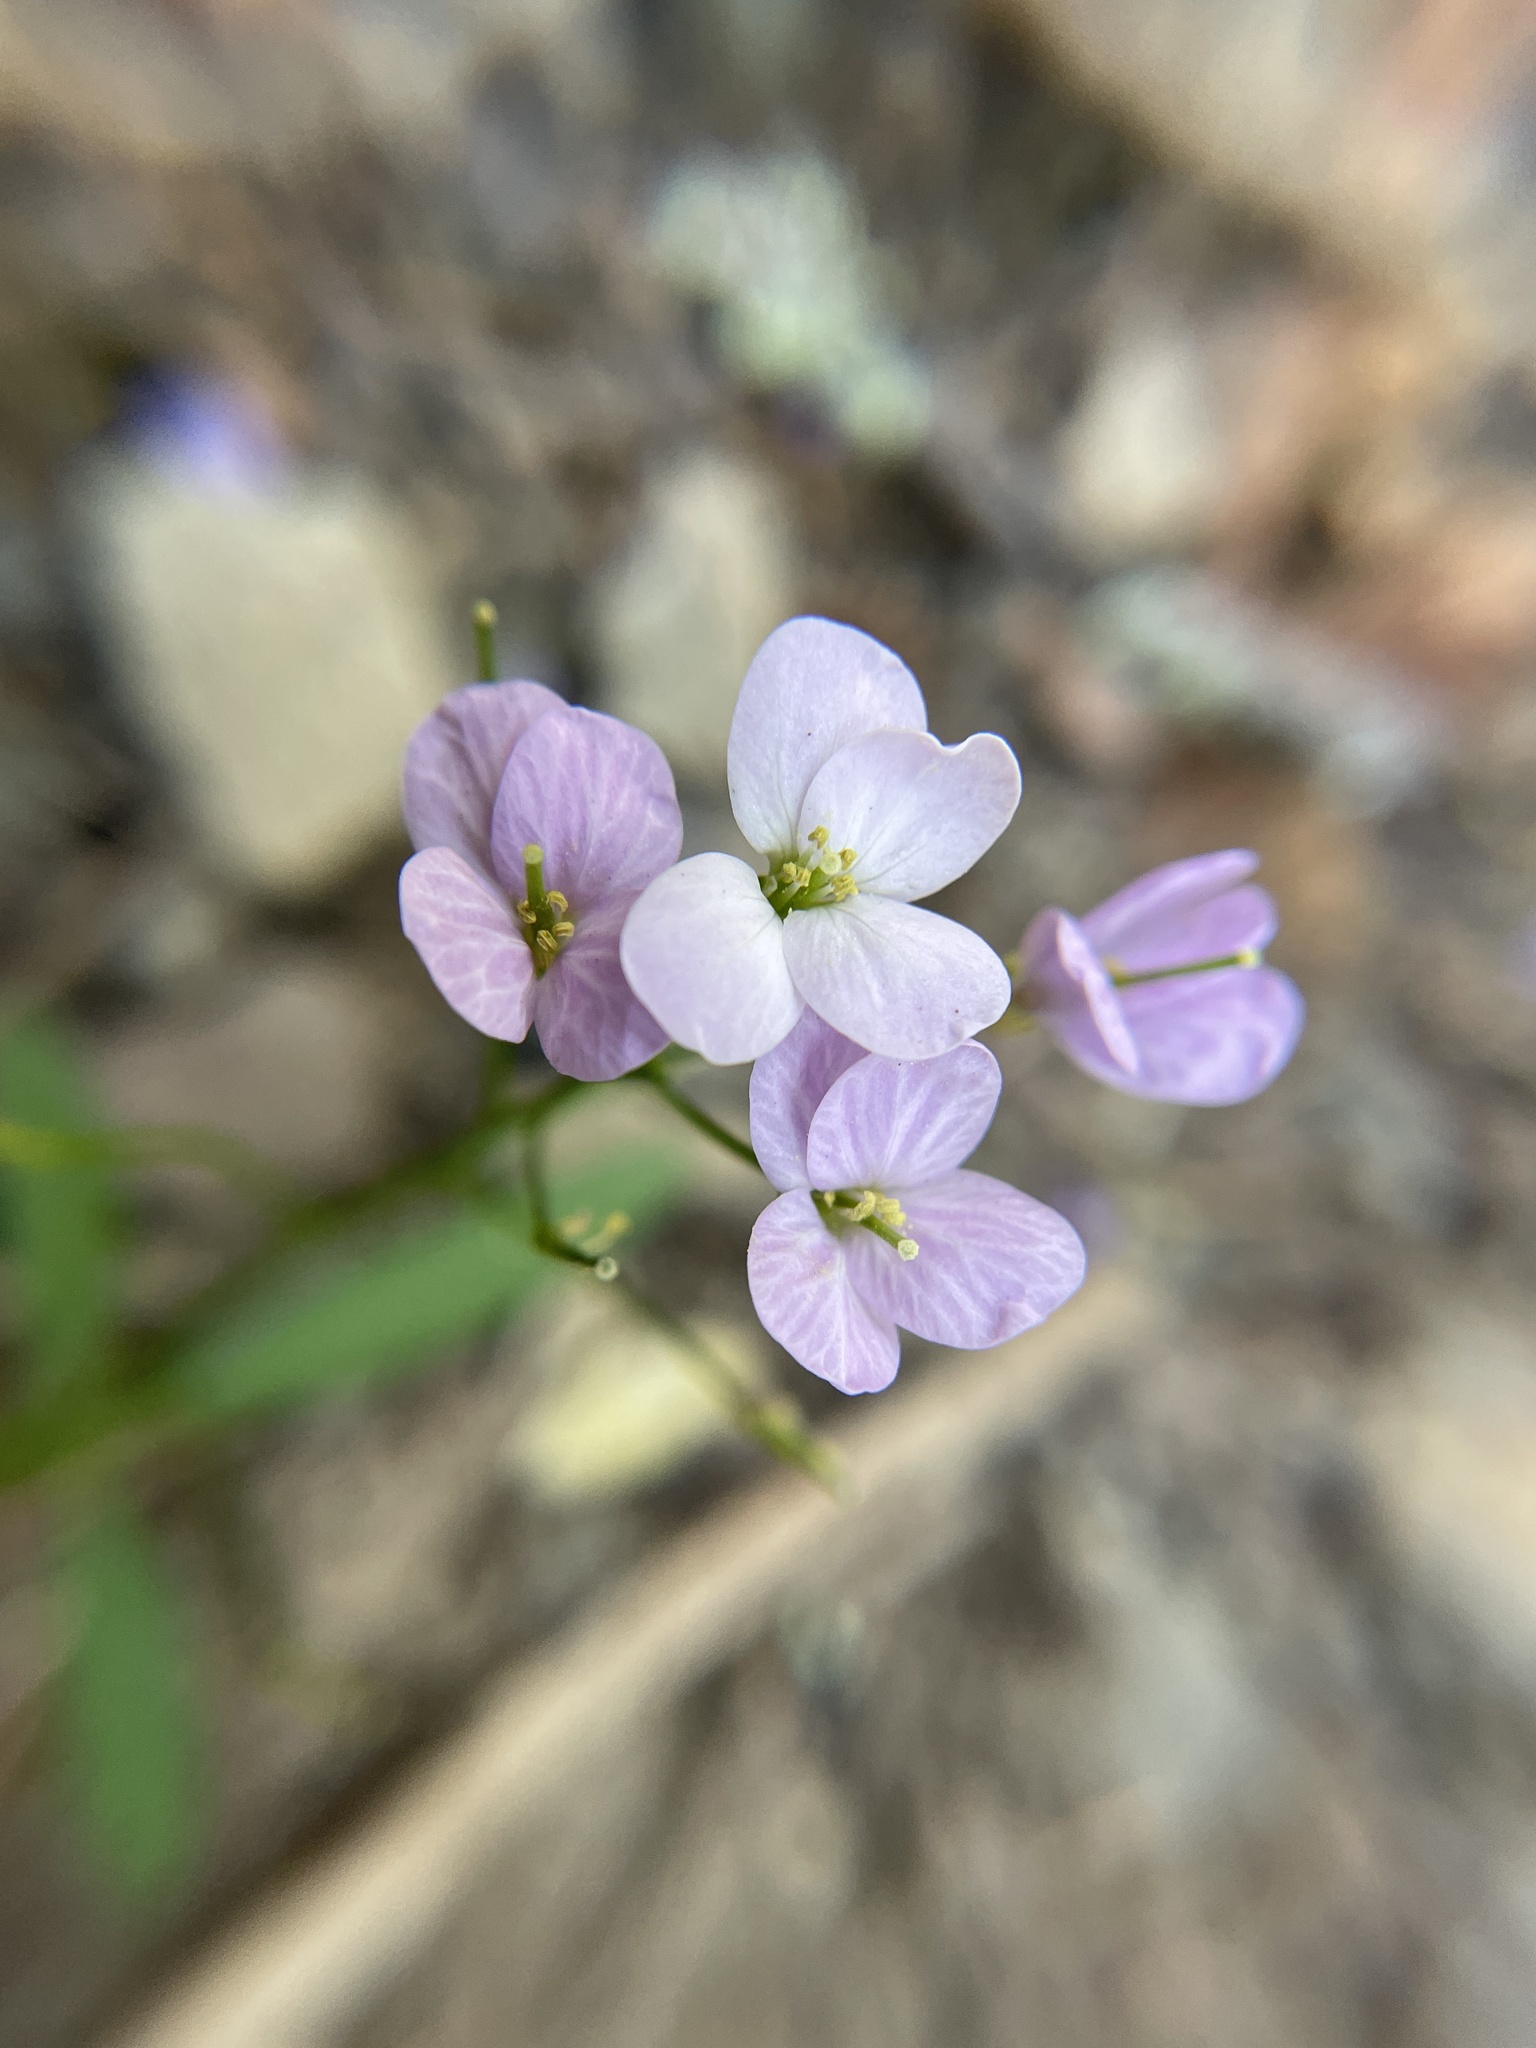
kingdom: Plantae
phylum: Tracheophyta
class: Magnoliopsida
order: Brassicales
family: Brassicaceae
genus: Cardamine
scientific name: Cardamine californica
